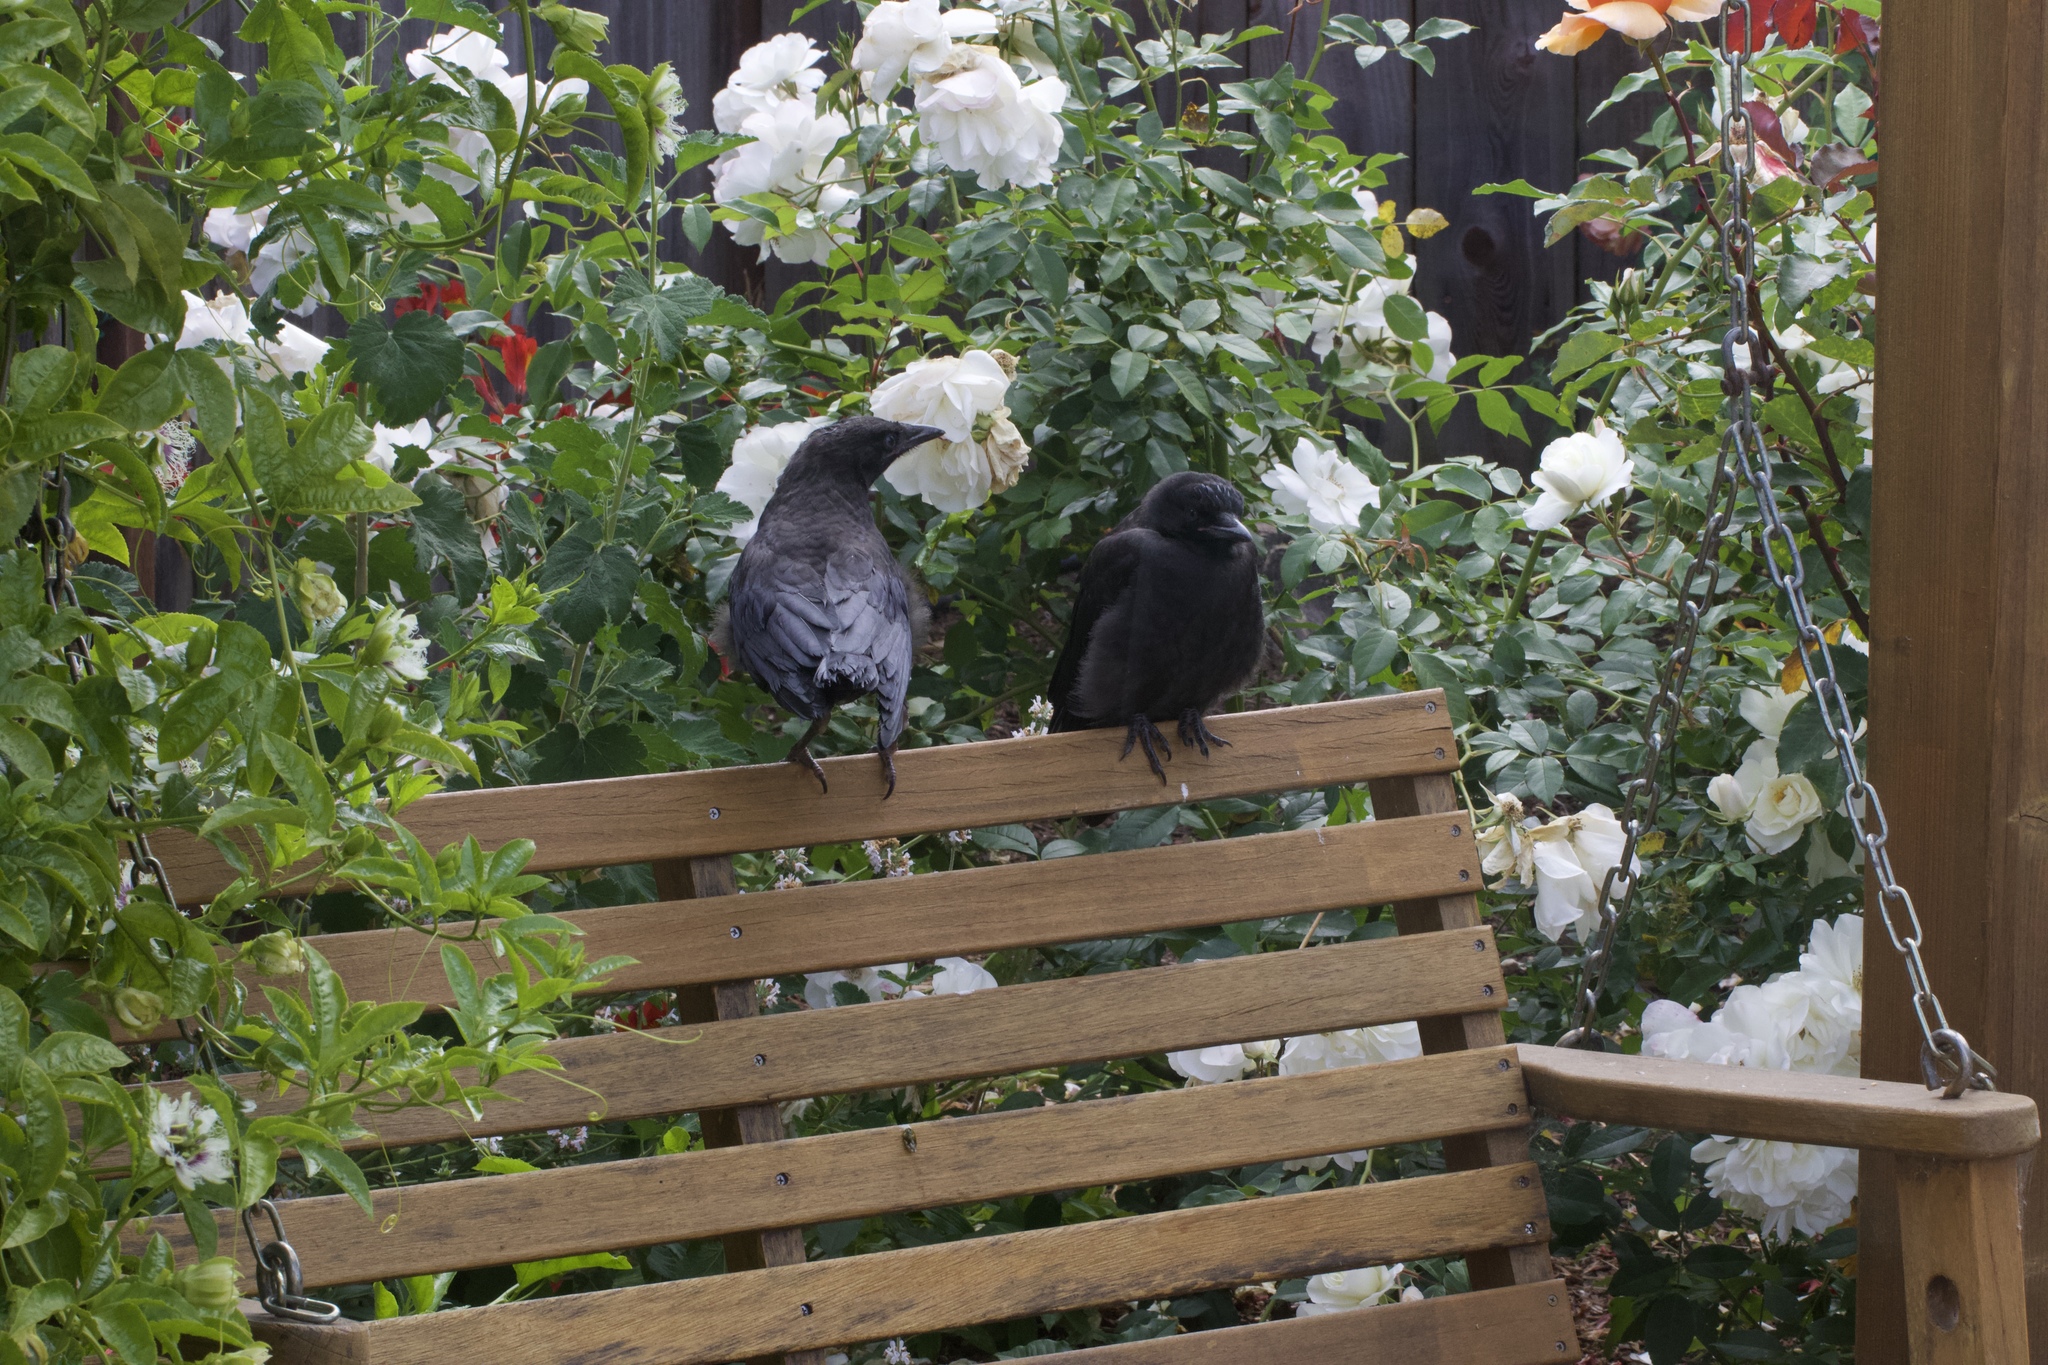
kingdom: Animalia
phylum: Chordata
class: Aves
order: Passeriformes
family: Corvidae
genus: Corvus
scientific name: Corvus brachyrhynchos
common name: American crow
